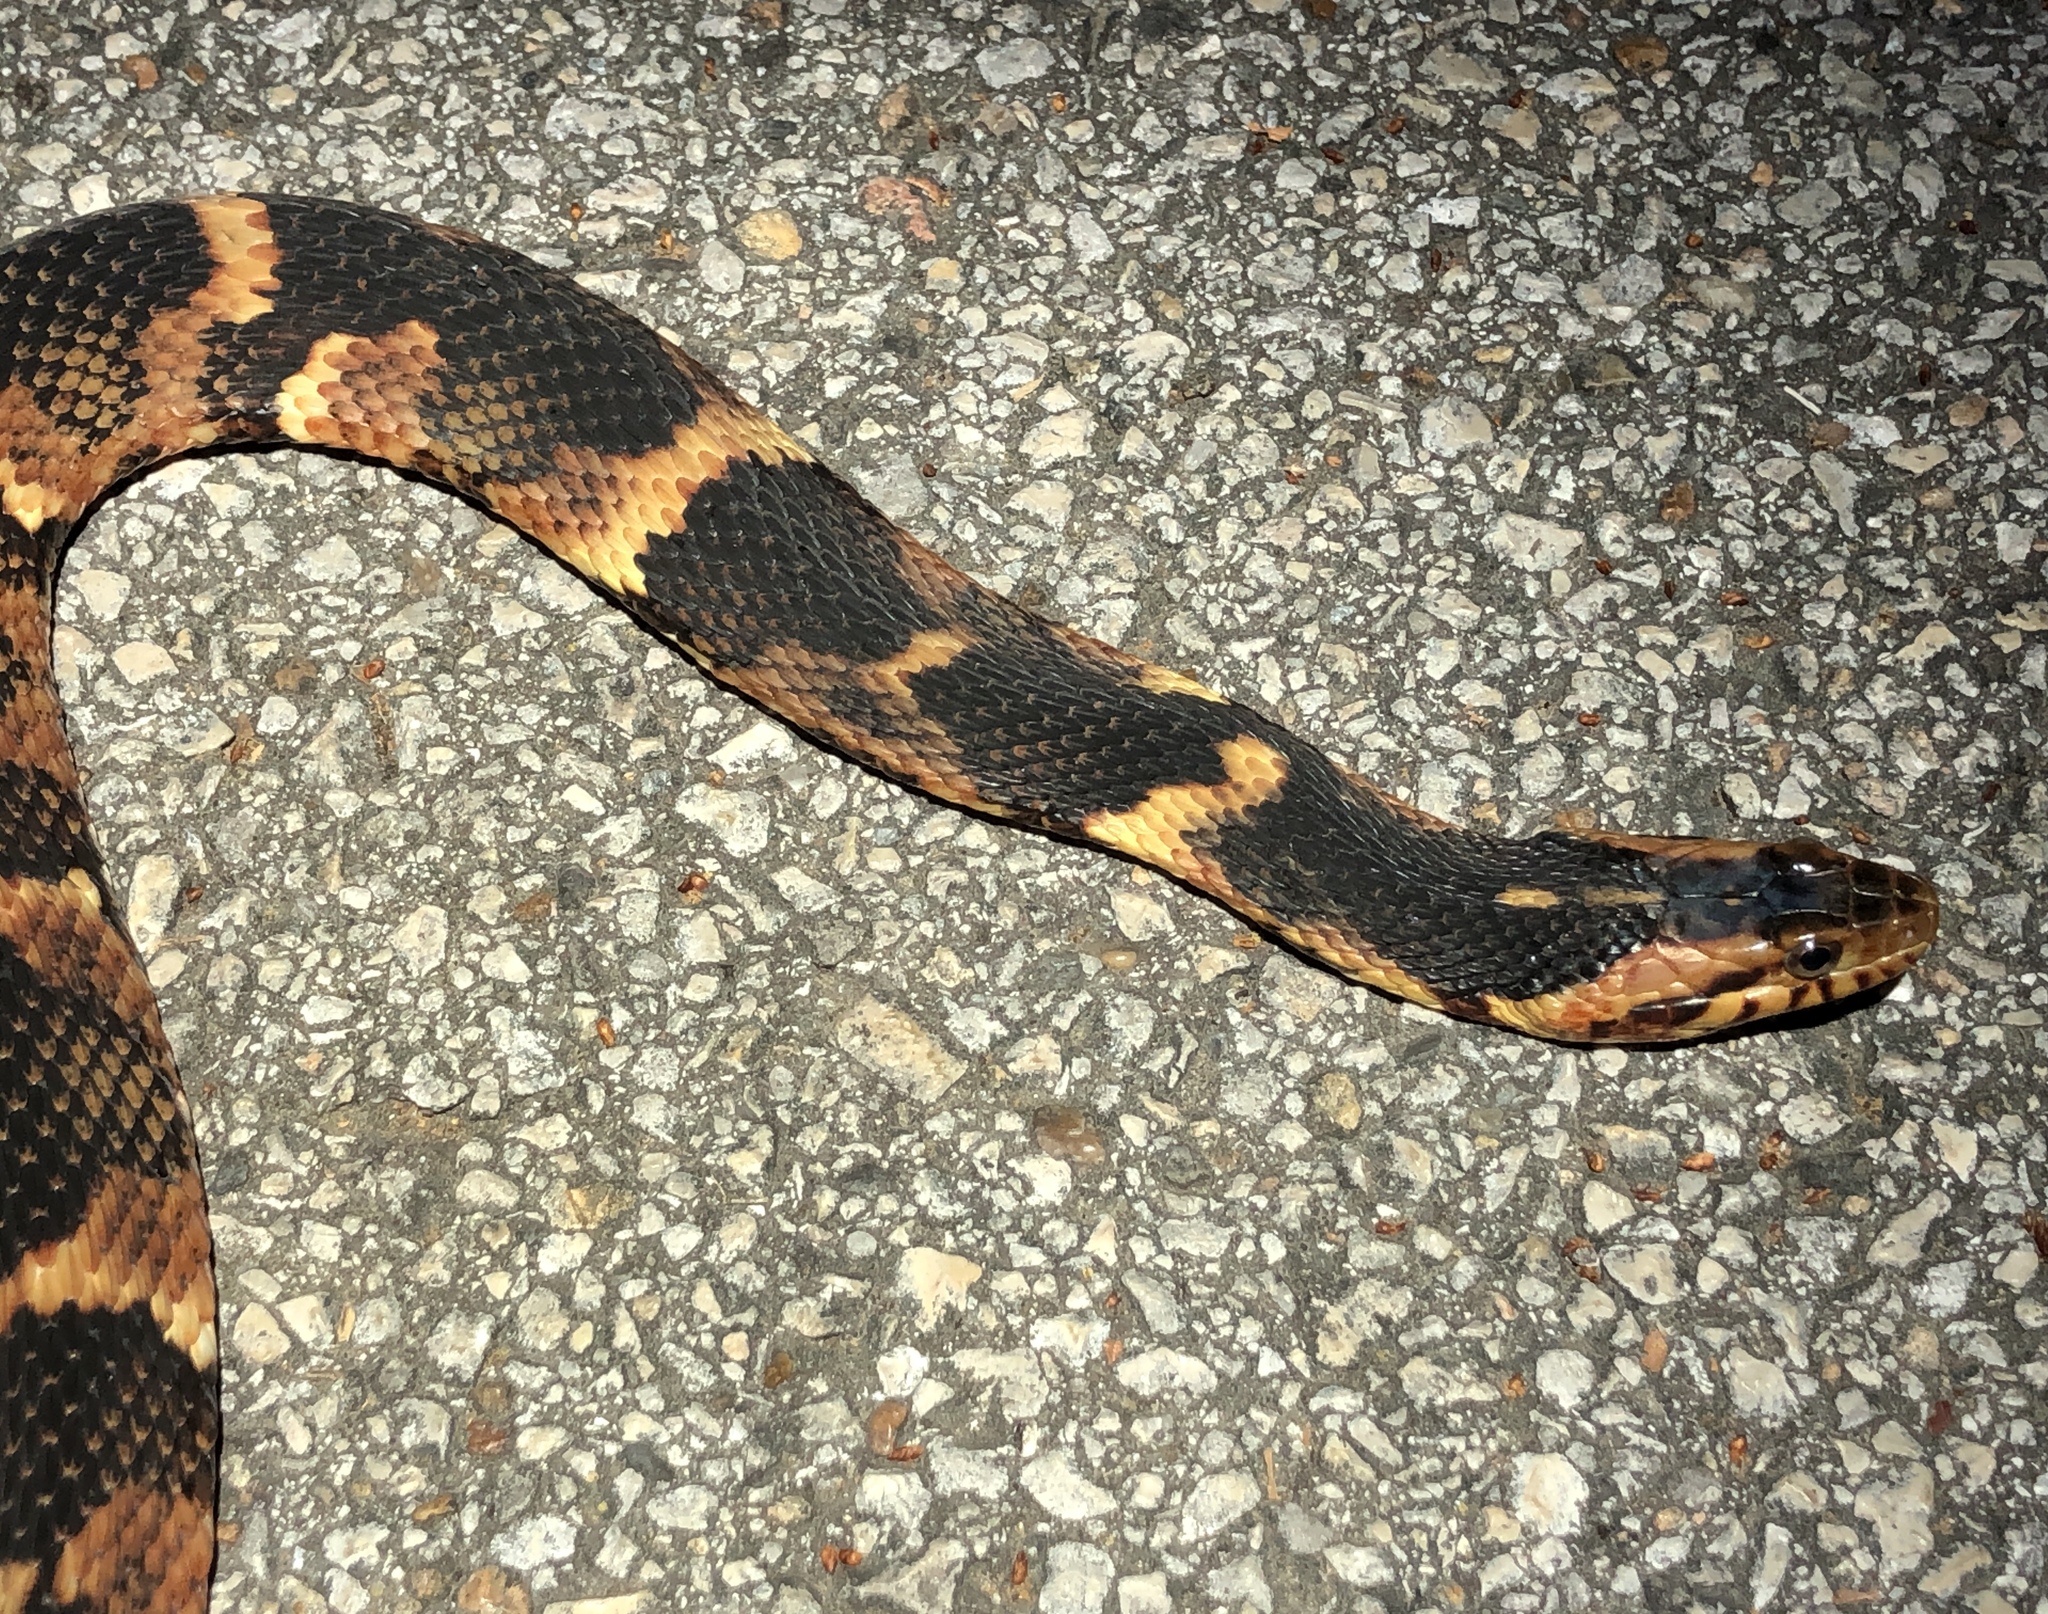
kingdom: Animalia
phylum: Chordata
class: Squamata
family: Colubridae
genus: Nerodia
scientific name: Nerodia fasciata
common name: Southern water snake
